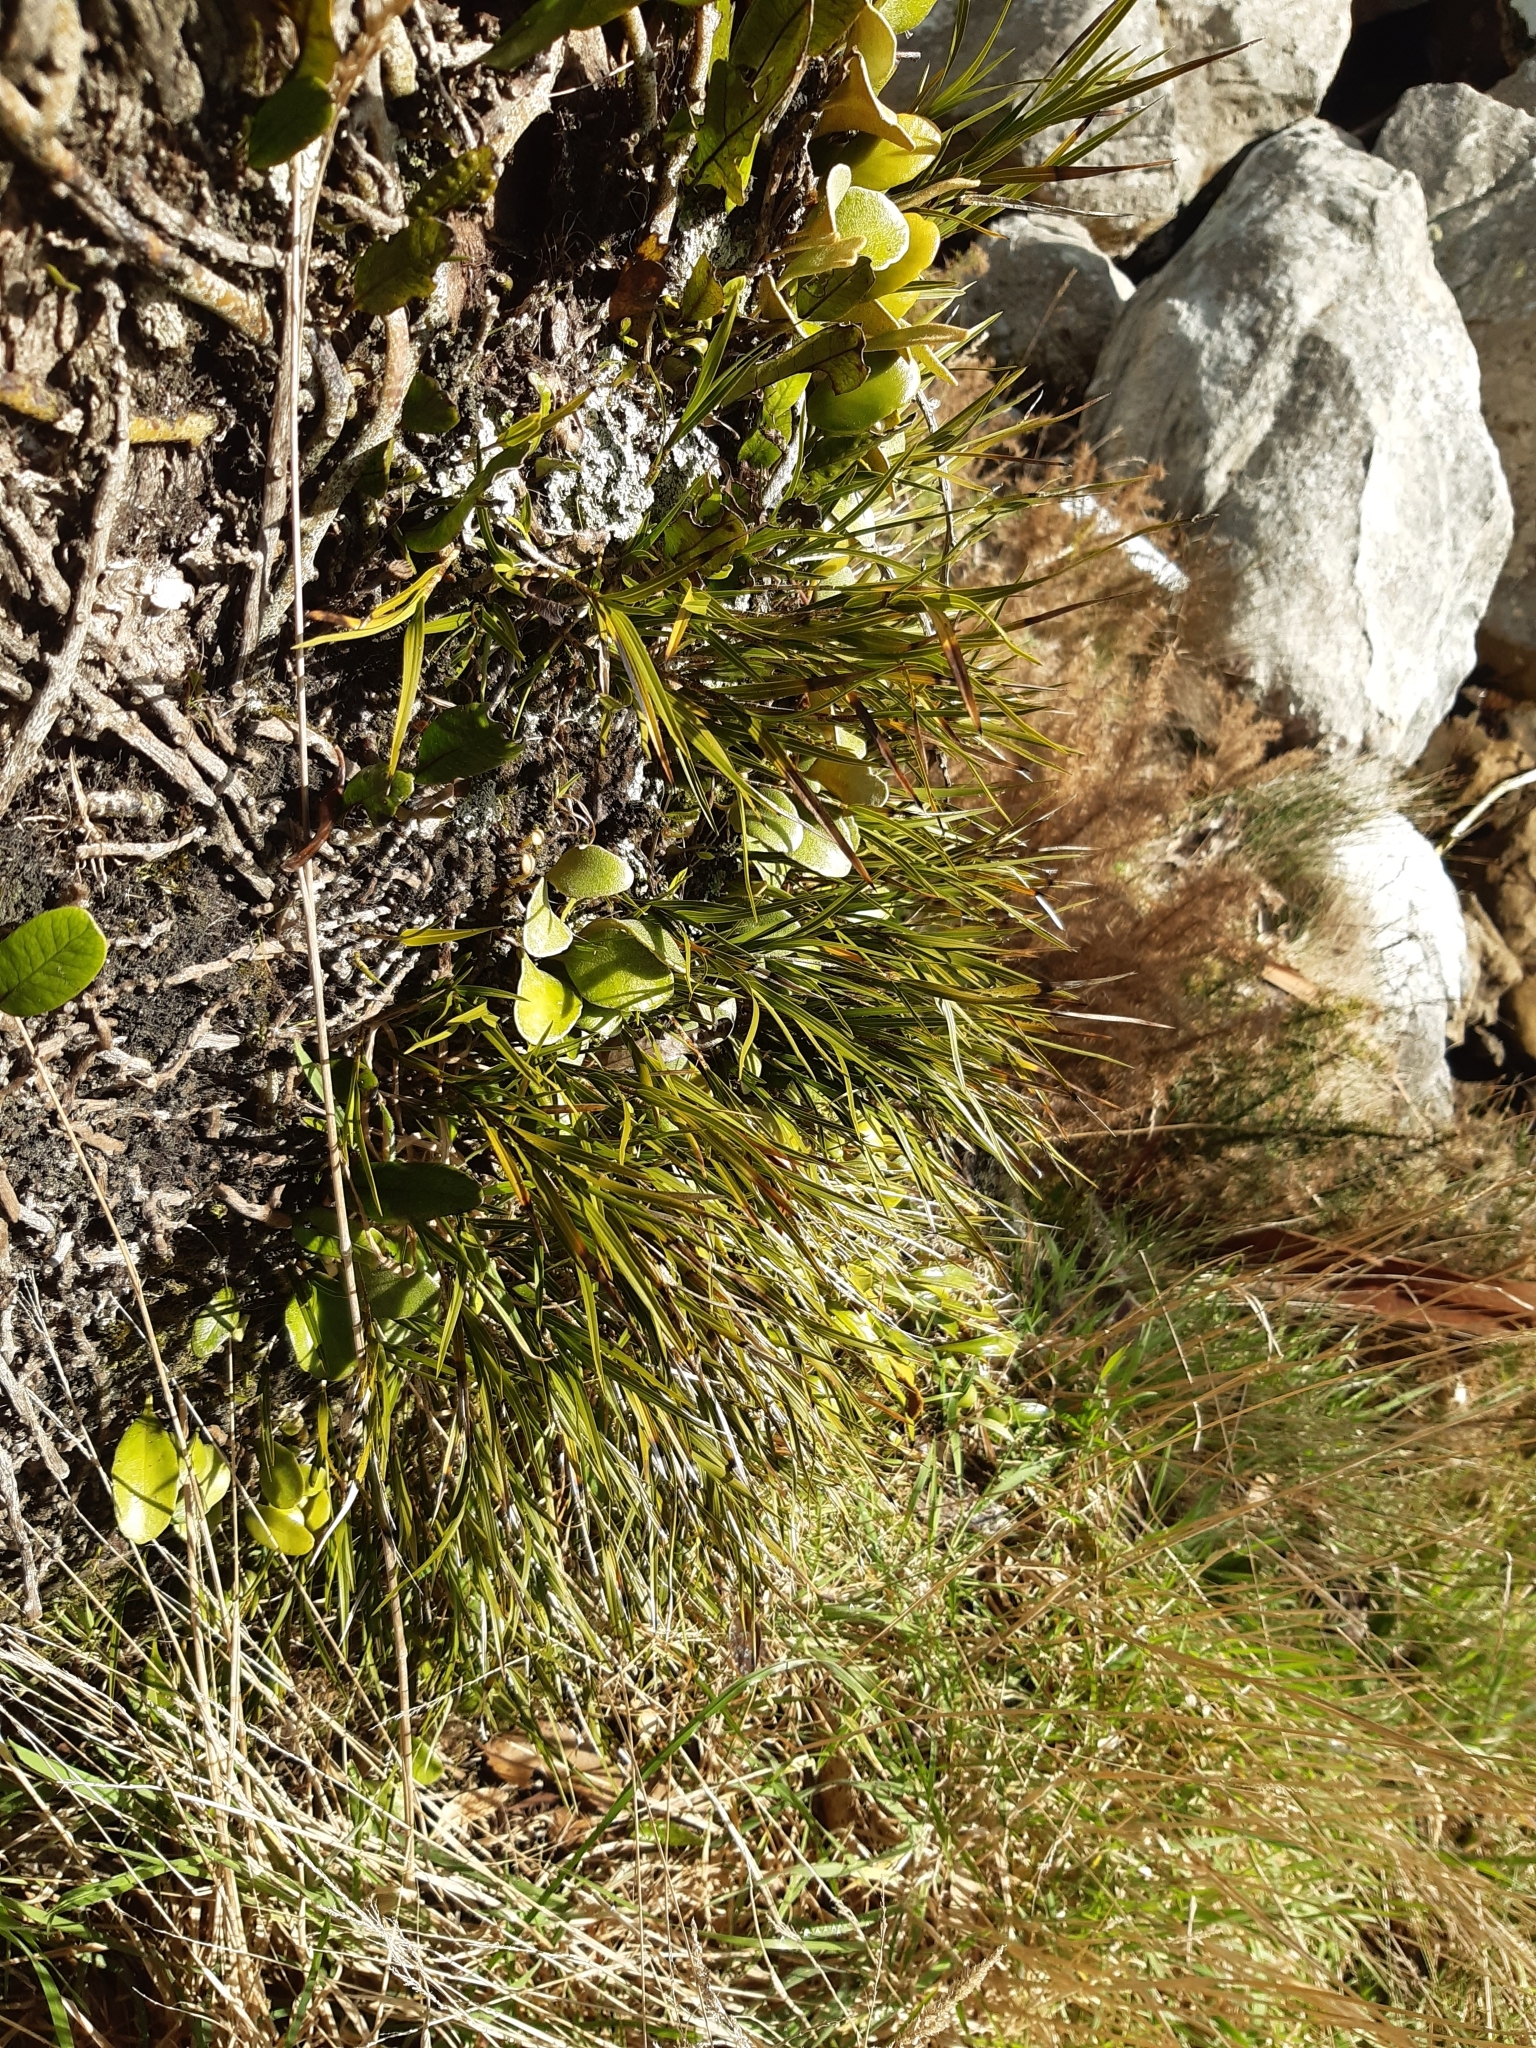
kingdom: Plantae
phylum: Tracheophyta
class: Liliopsida
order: Asparagales
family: Orchidaceae
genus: Earina
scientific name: Earina mucronata
